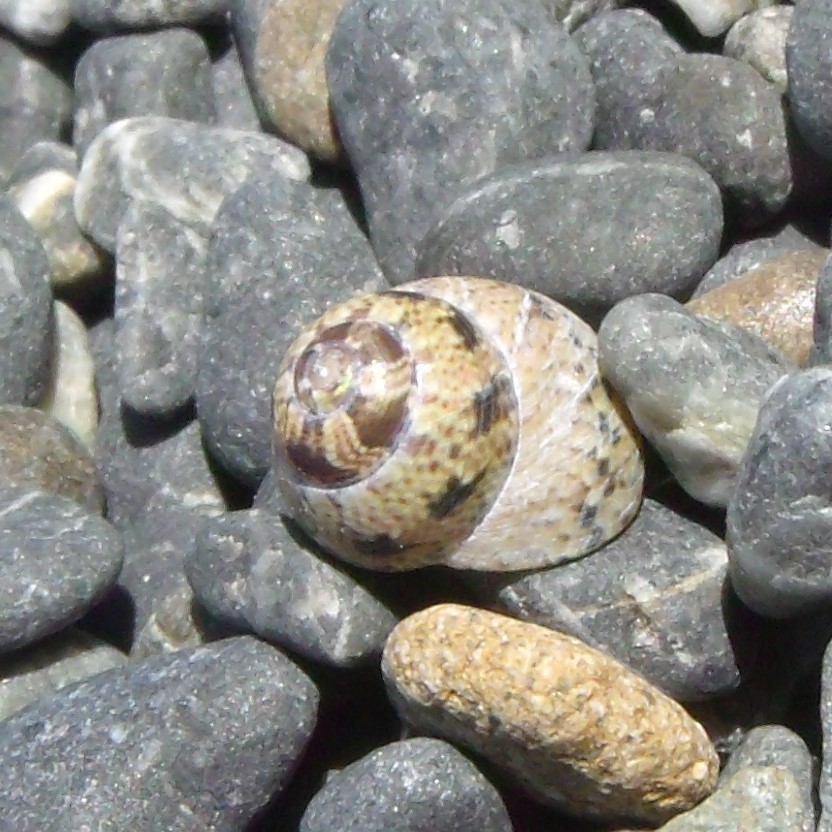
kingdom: Animalia
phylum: Mollusca
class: Gastropoda
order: Trochida
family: Trochidae
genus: Micrelenchus
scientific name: Micrelenchus tessellatus
